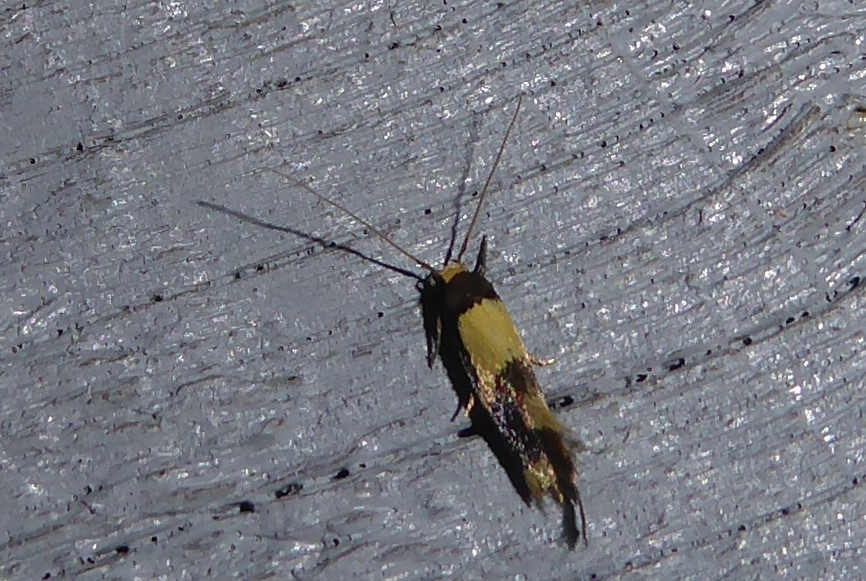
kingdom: Animalia
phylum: Arthropoda
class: Insecta
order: Lepidoptera
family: Tineidae
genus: Opogona
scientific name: Opogona comptella
